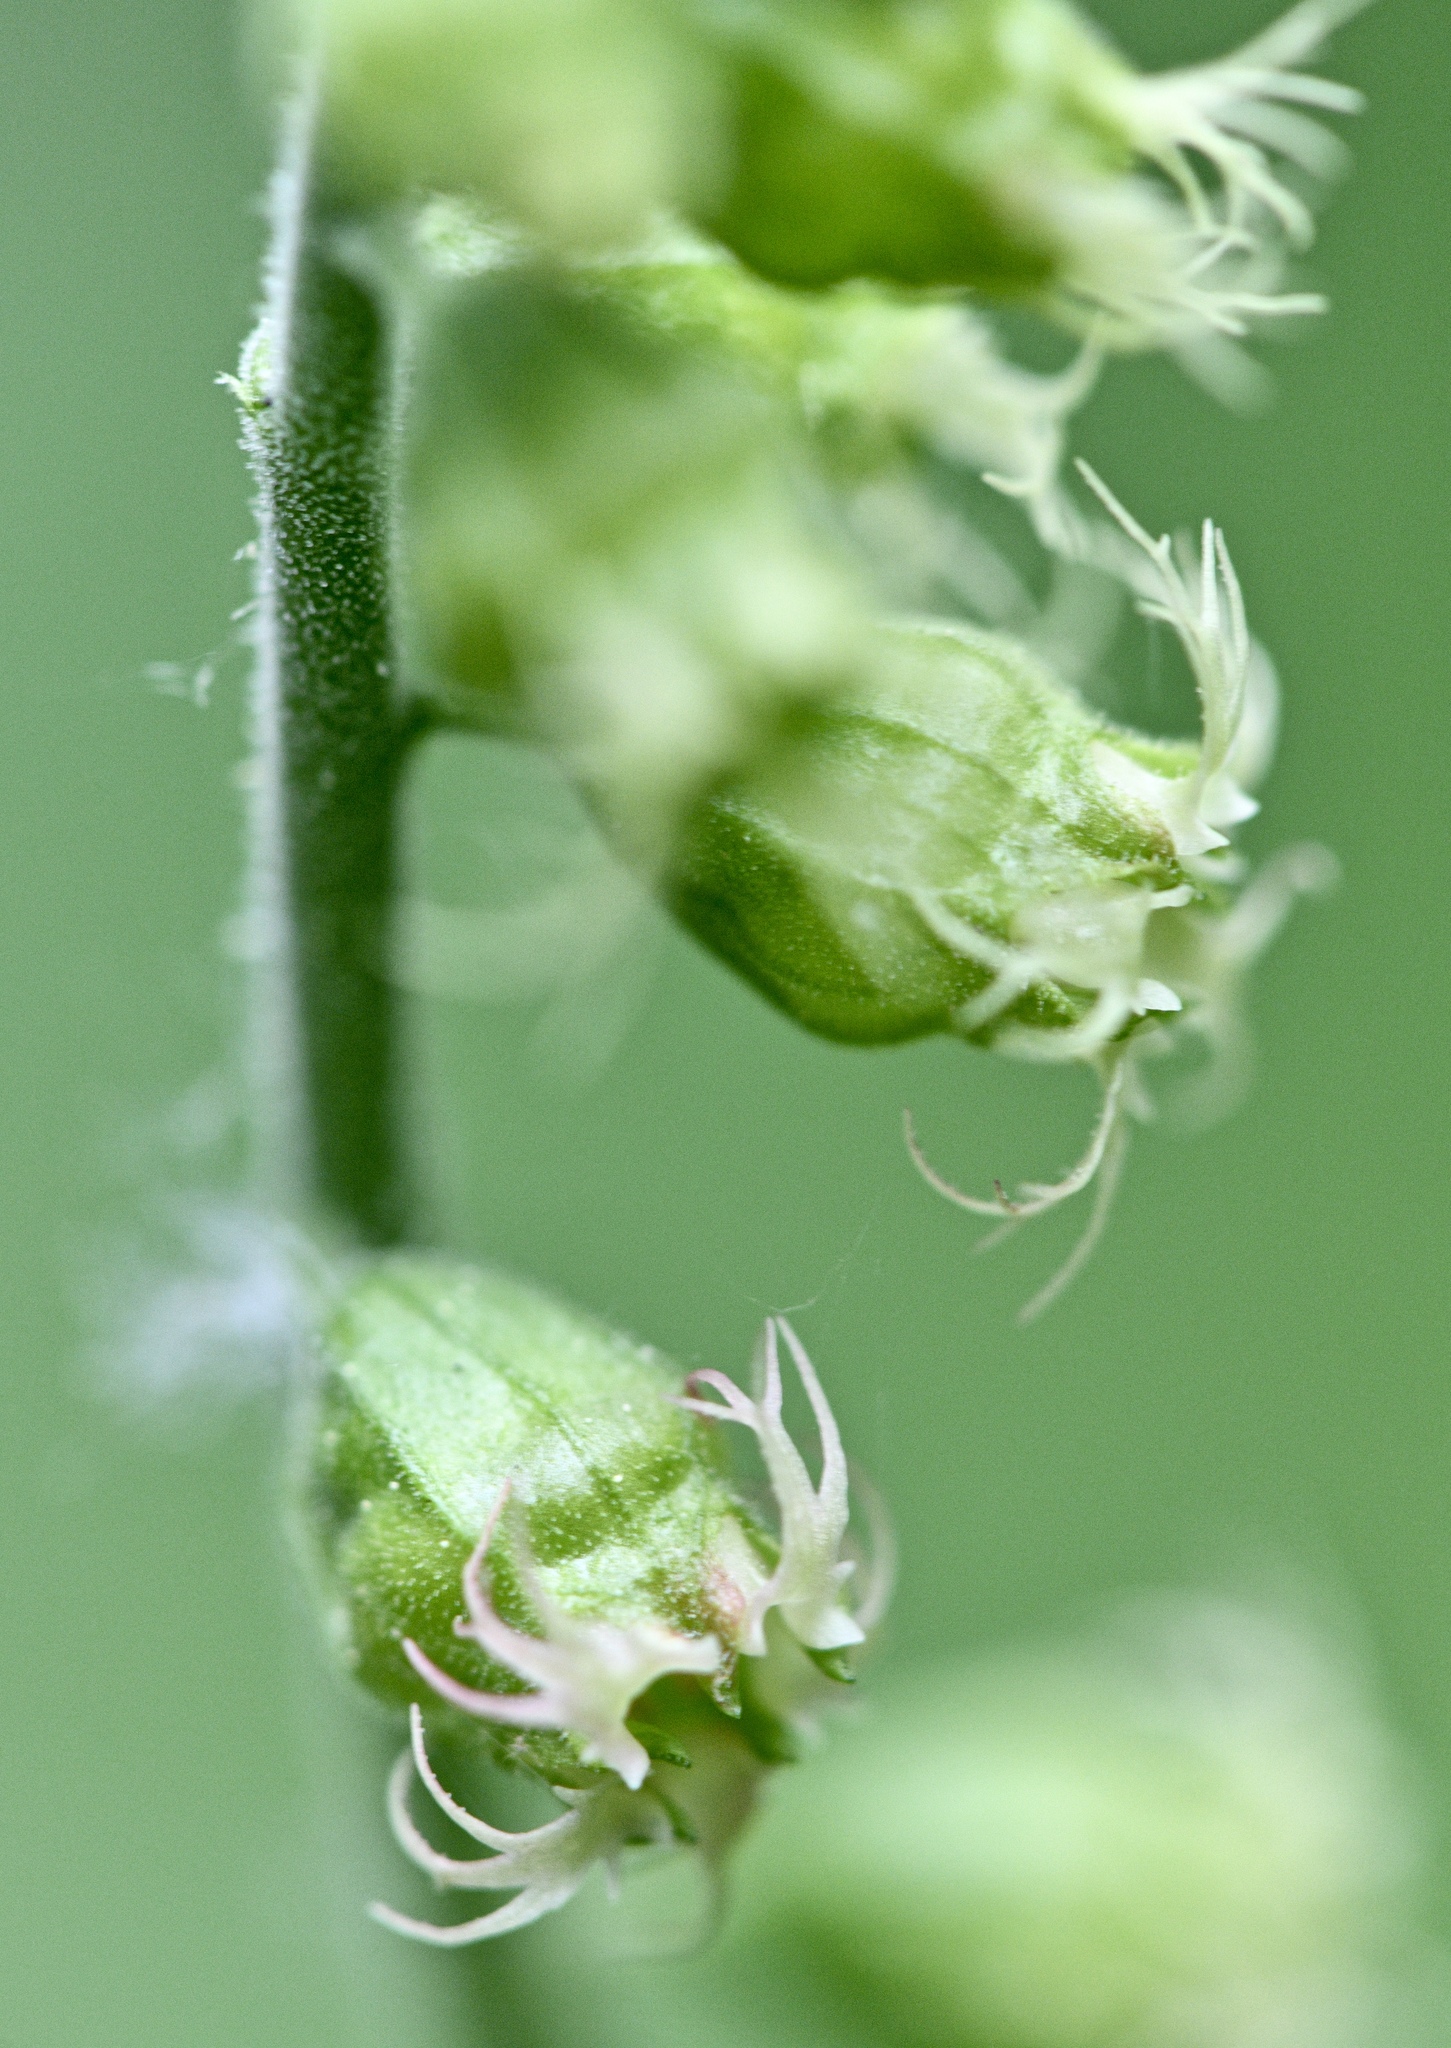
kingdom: Plantae
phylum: Tracheophyta
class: Magnoliopsida
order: Saxifragales
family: Saxifragaceae
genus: Tellima
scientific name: Tellima grandiflora
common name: Fringecups
